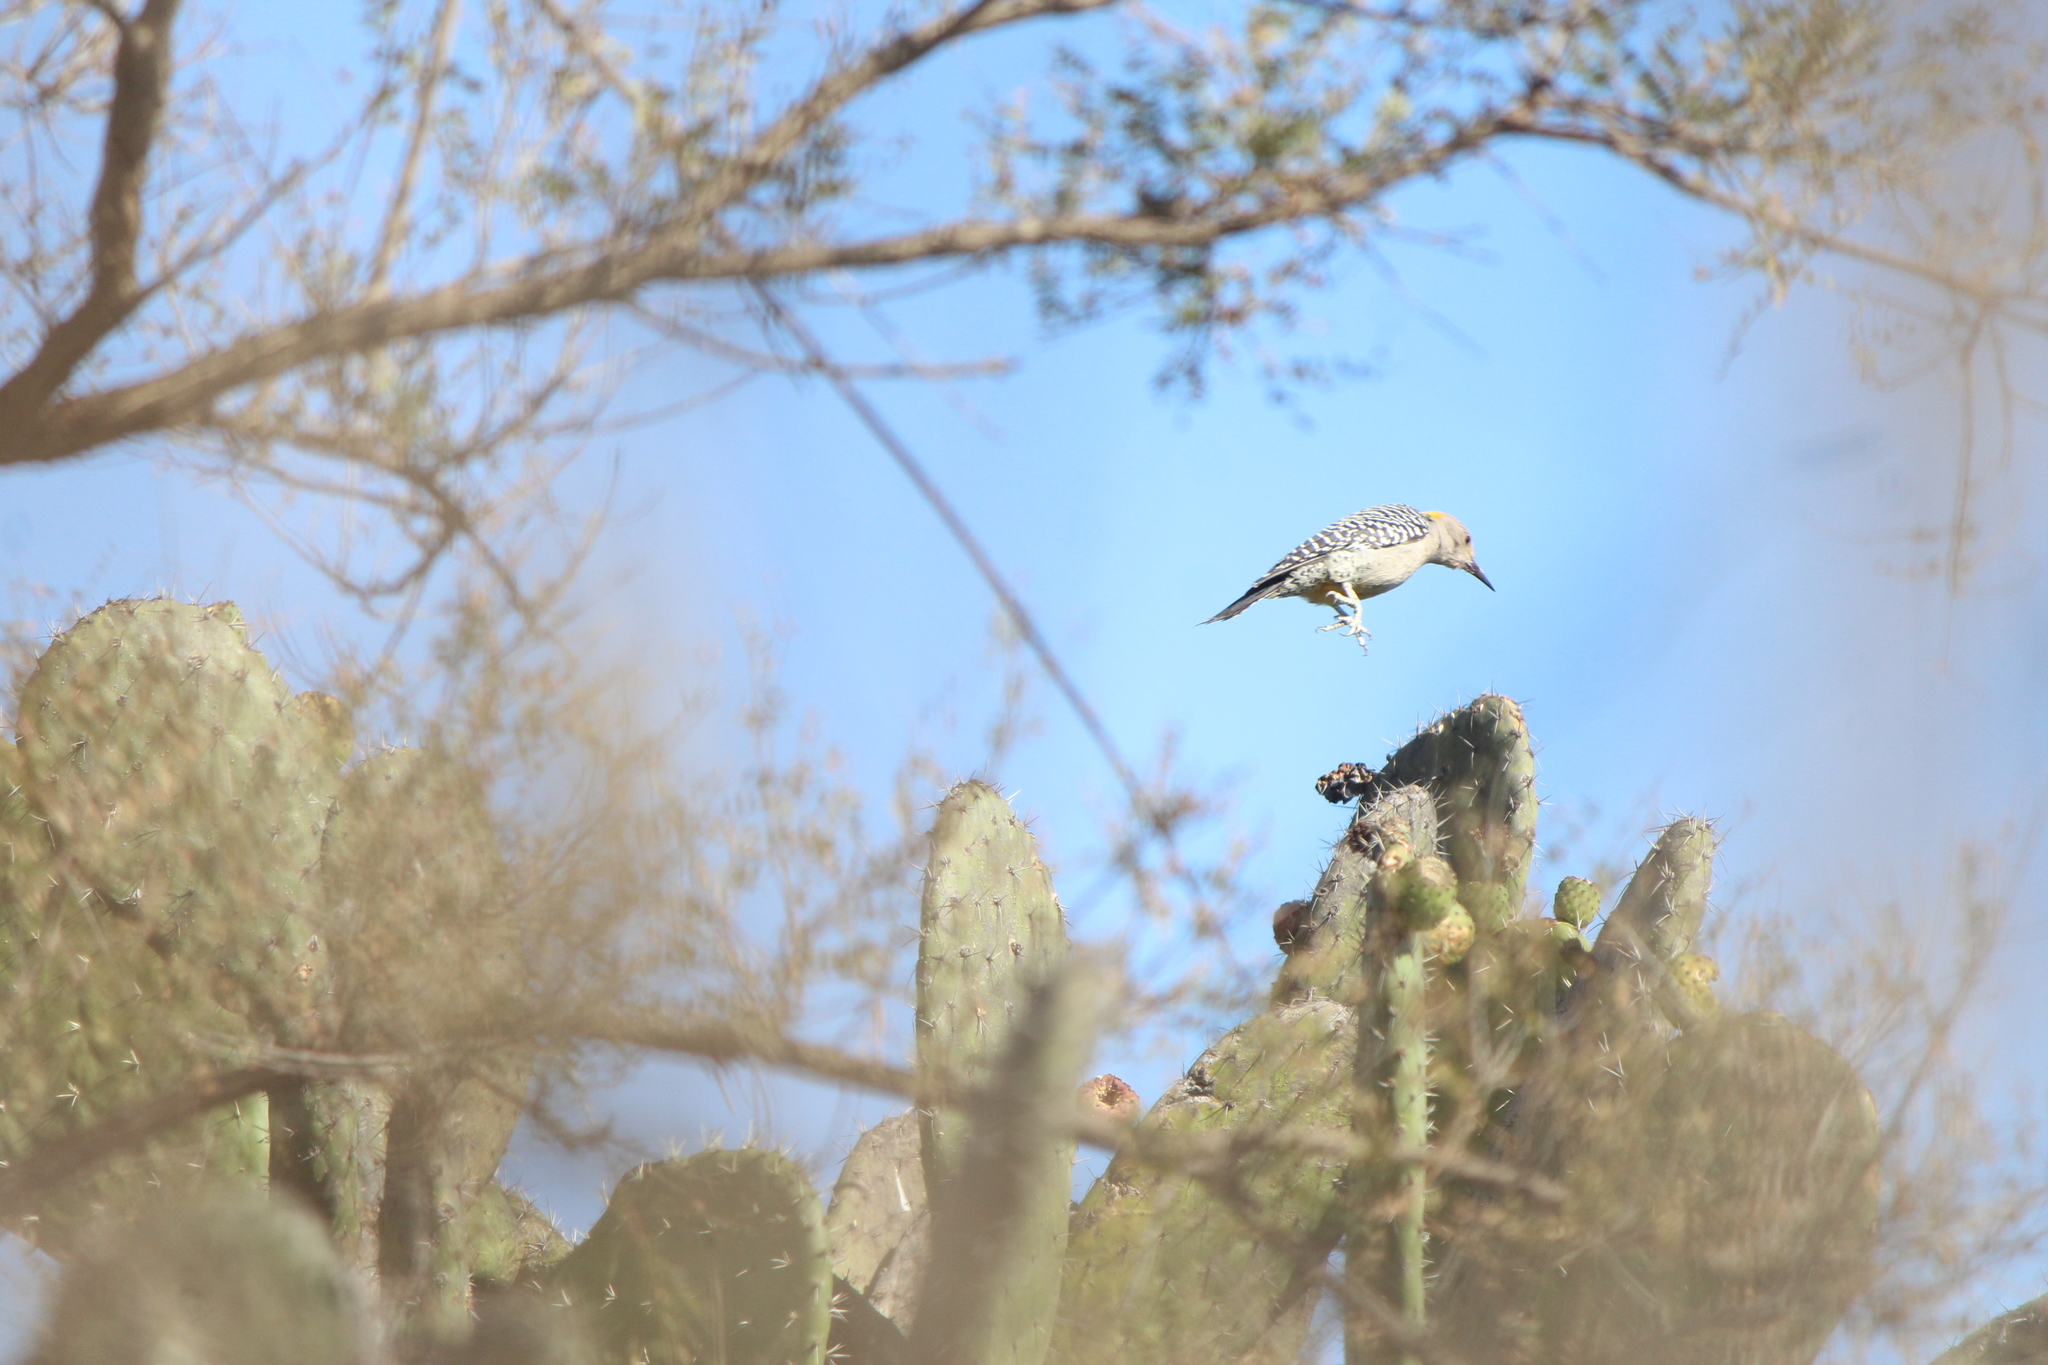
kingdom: Animalia
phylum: Chordata
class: Aves
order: Piciformes
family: Picidae
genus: Melanerpes
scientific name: Melanerpes aurifrons
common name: Golden-fronted woodpecker
